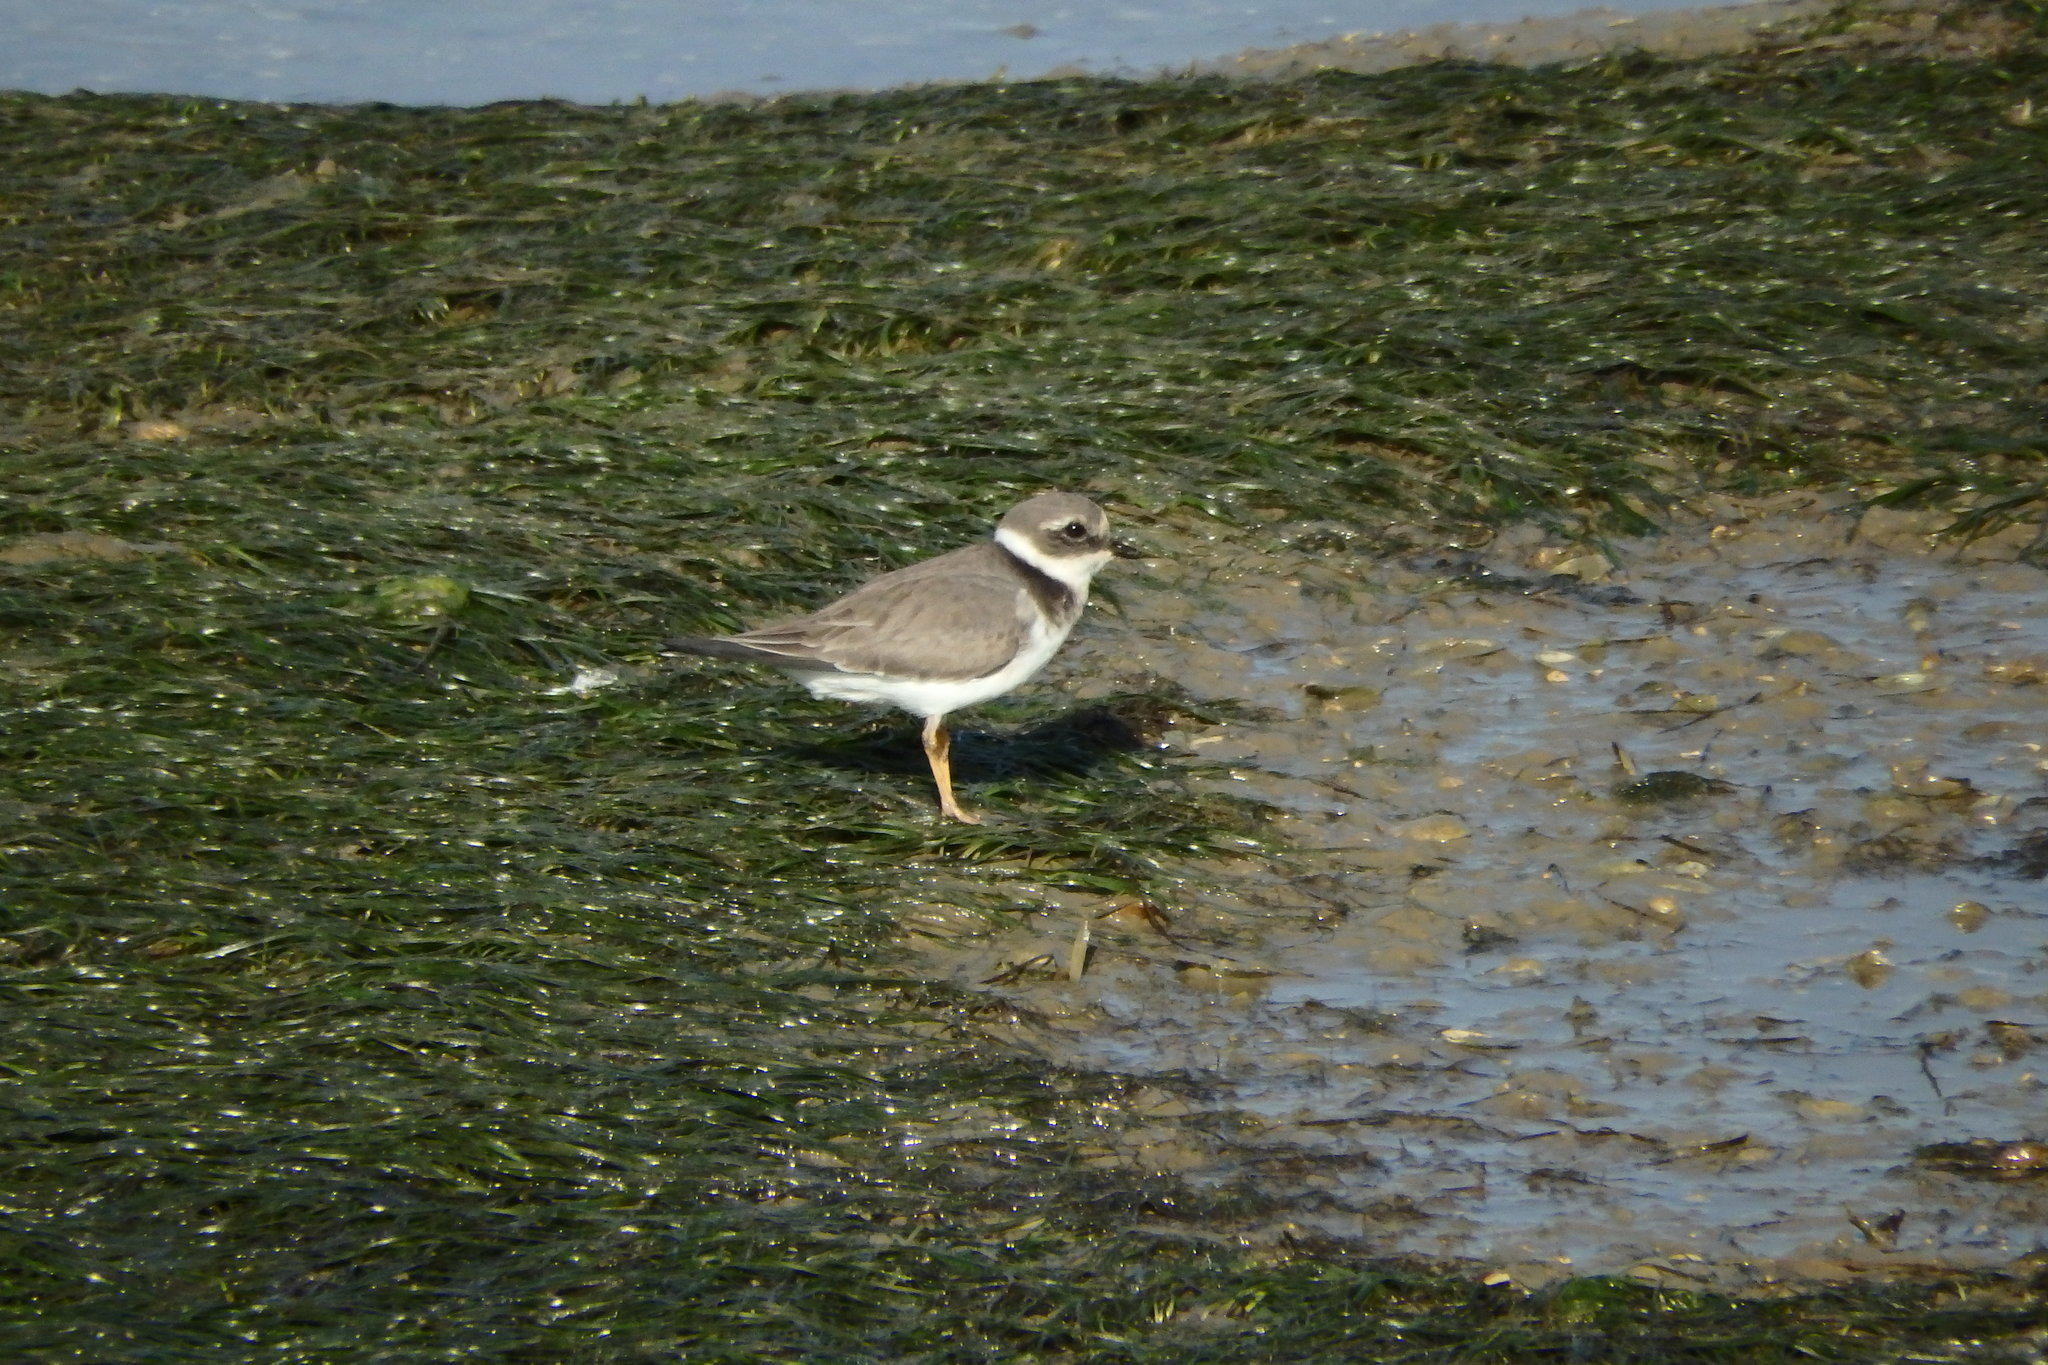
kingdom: Animalia
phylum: Chordata
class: Aves
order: Charadriiformes
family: Charadriidae
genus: Charadrius
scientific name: Charadrius hiaticula
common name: Common ringed plover
